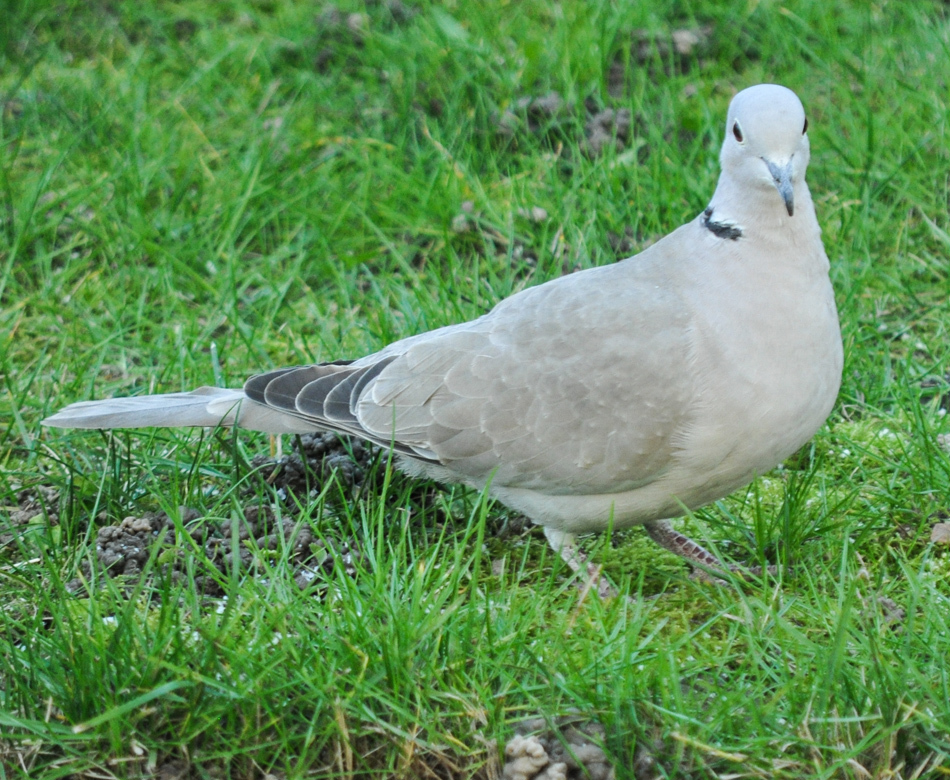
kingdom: Animalia
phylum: Chordata
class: Aves
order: Columbiformes
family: Columbidae
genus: Streptopelia
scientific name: Streptopelia decaocto
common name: Eurasian collared dove
